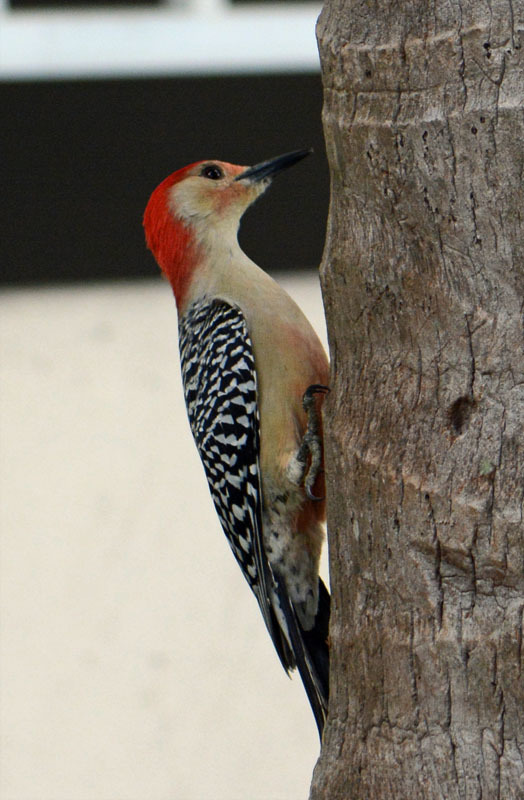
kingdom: Animalia
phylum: Chordata
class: Aves
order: Piciformes
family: Picidae
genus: Melanerpes
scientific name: Melanerpes carolinus
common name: Red-bellied woodpecker
